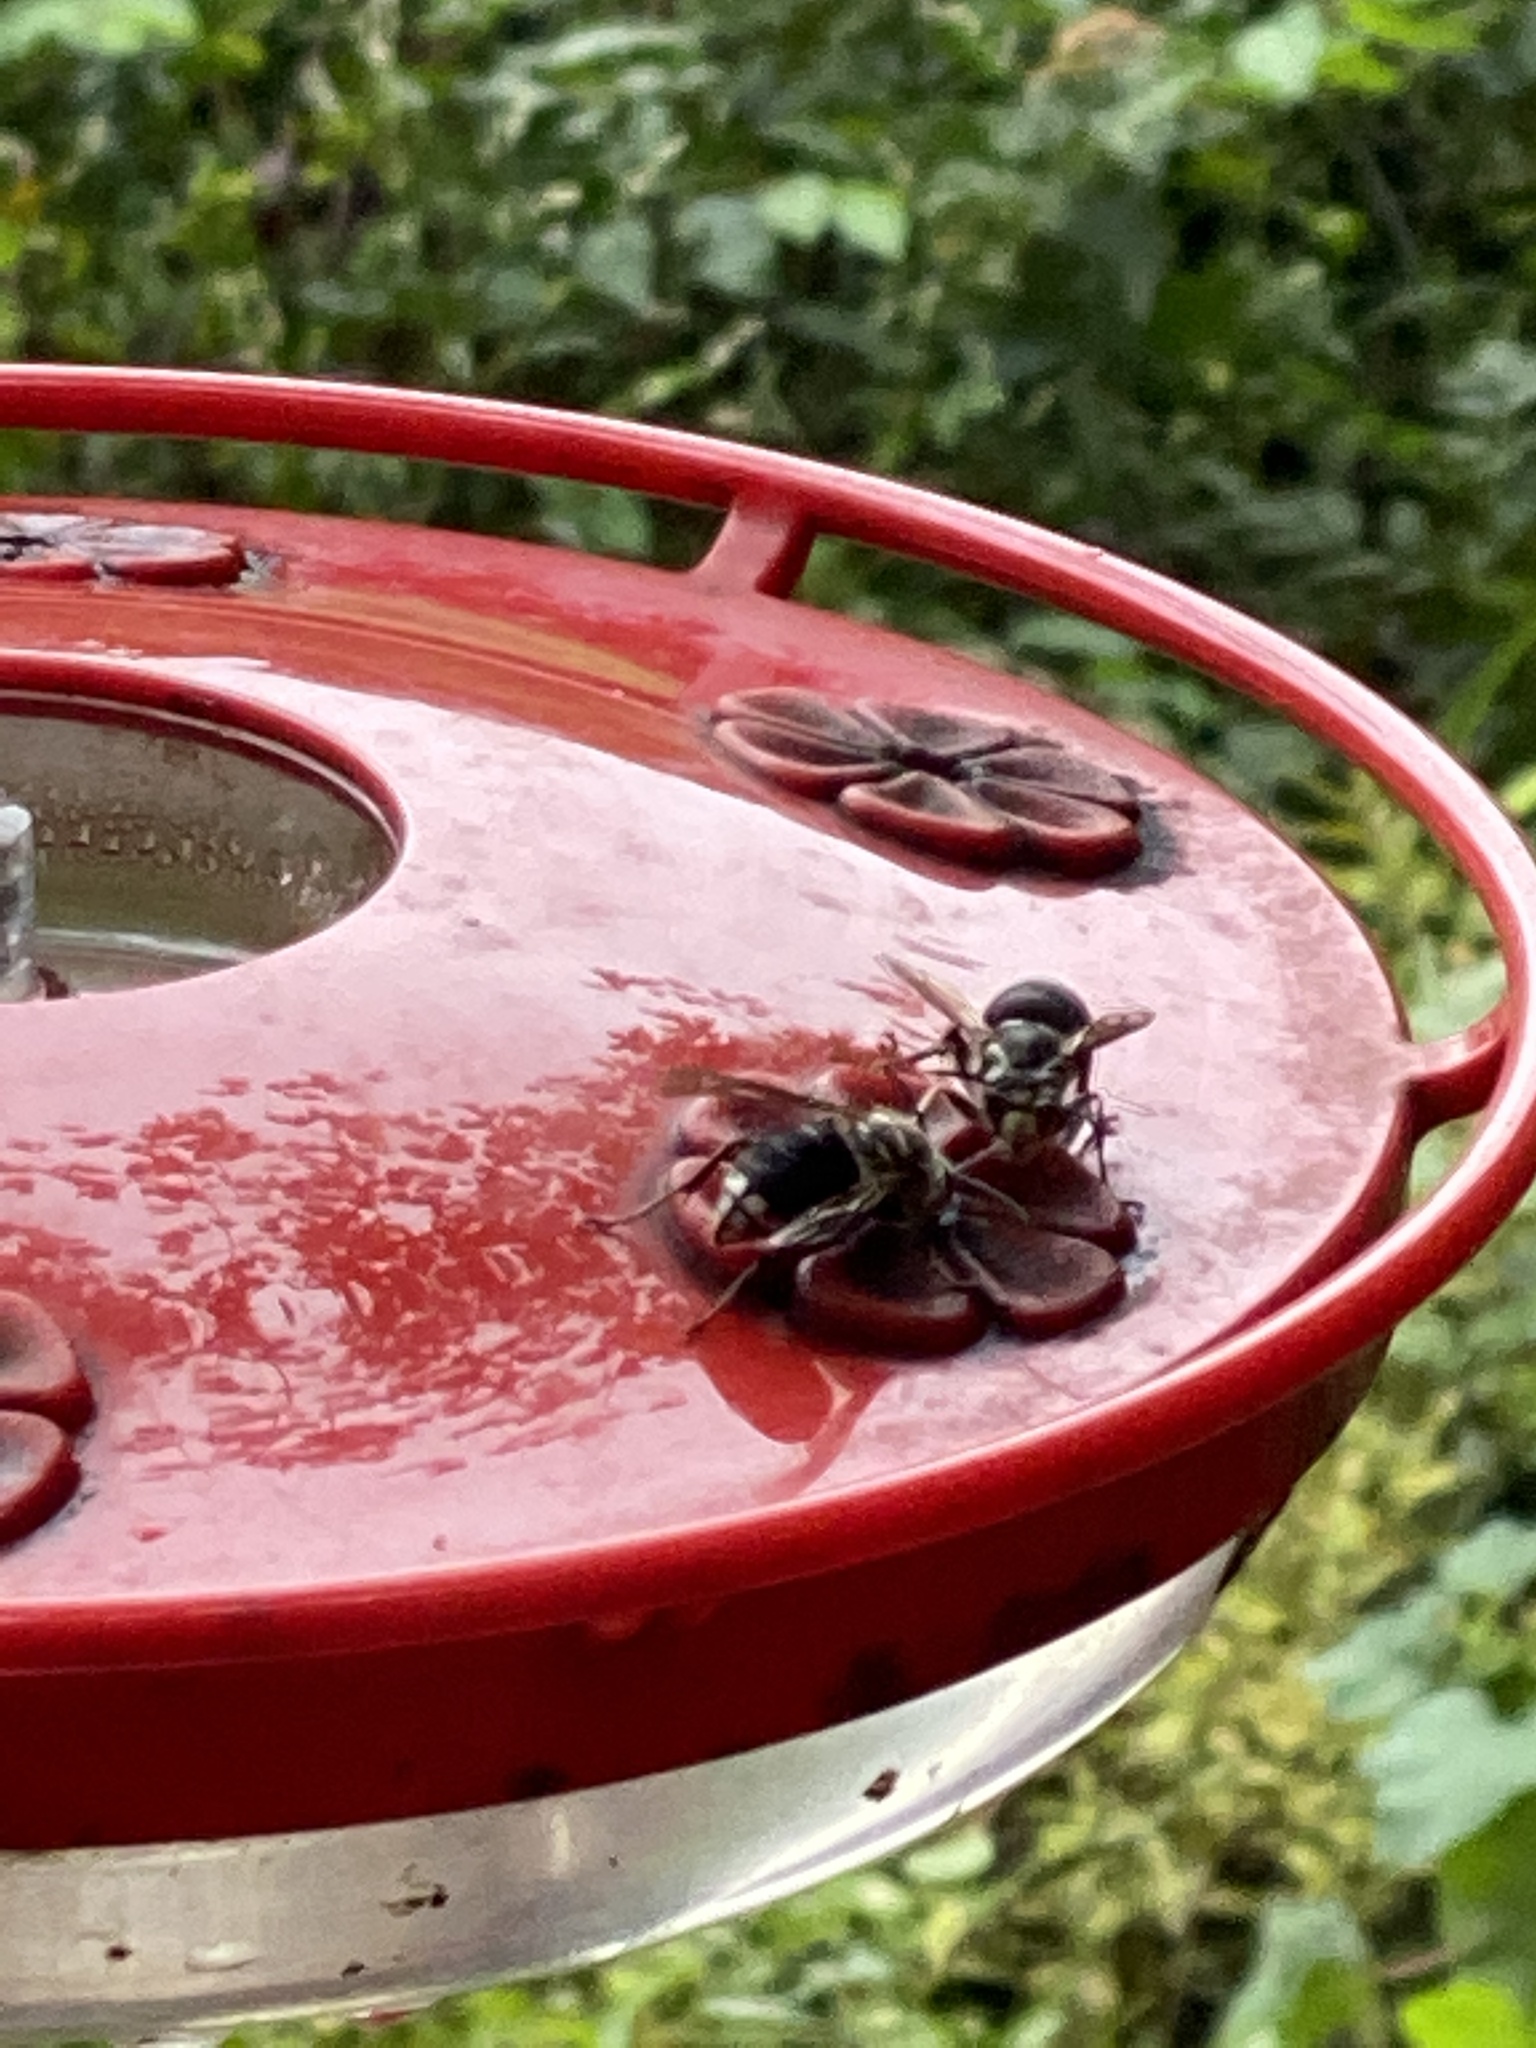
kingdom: Animalia
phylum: Arthropoda
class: Insecta
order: Hymenoptera
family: Vespidae
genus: Dolichovespula
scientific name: Dolichovespula maculata
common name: Bald-faced hornet
